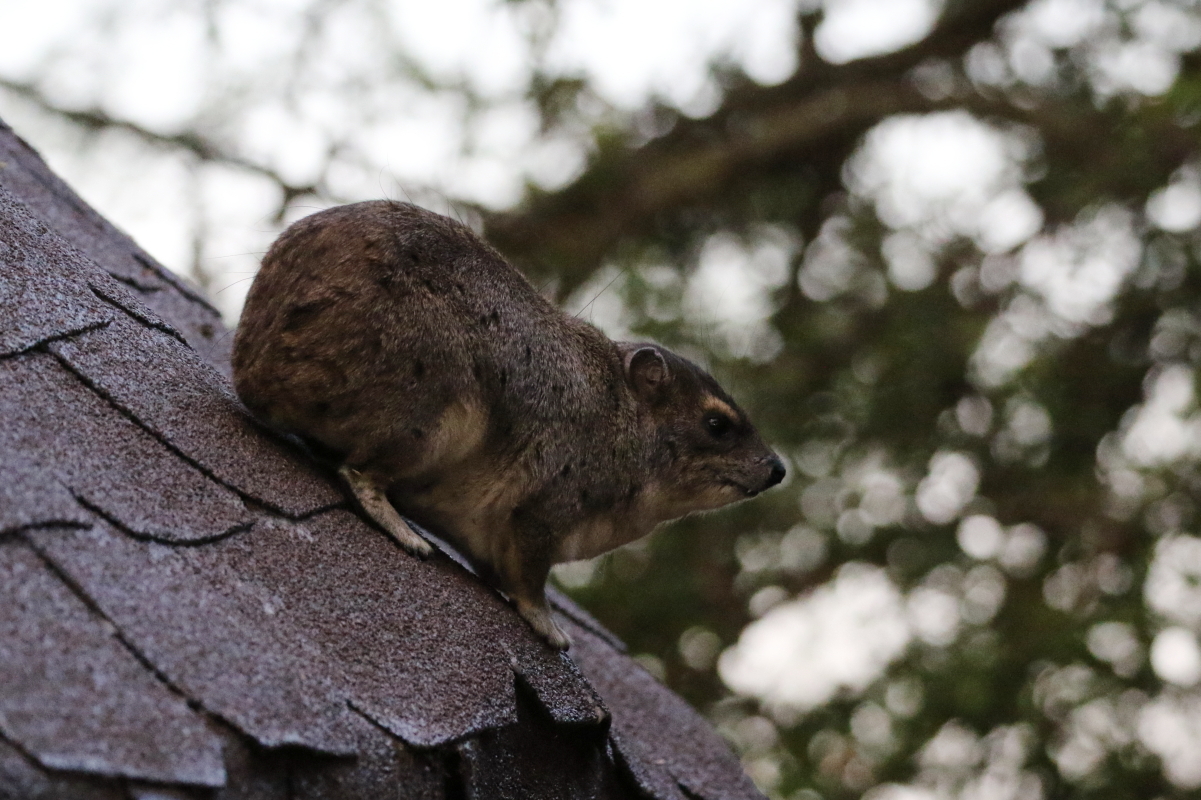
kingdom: Animalia
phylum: Chordata
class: Mammalia
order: Hyracoidea
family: Procaviidae
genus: Heterohyrax
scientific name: Heterohyrax brucei
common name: Bush hyrax
